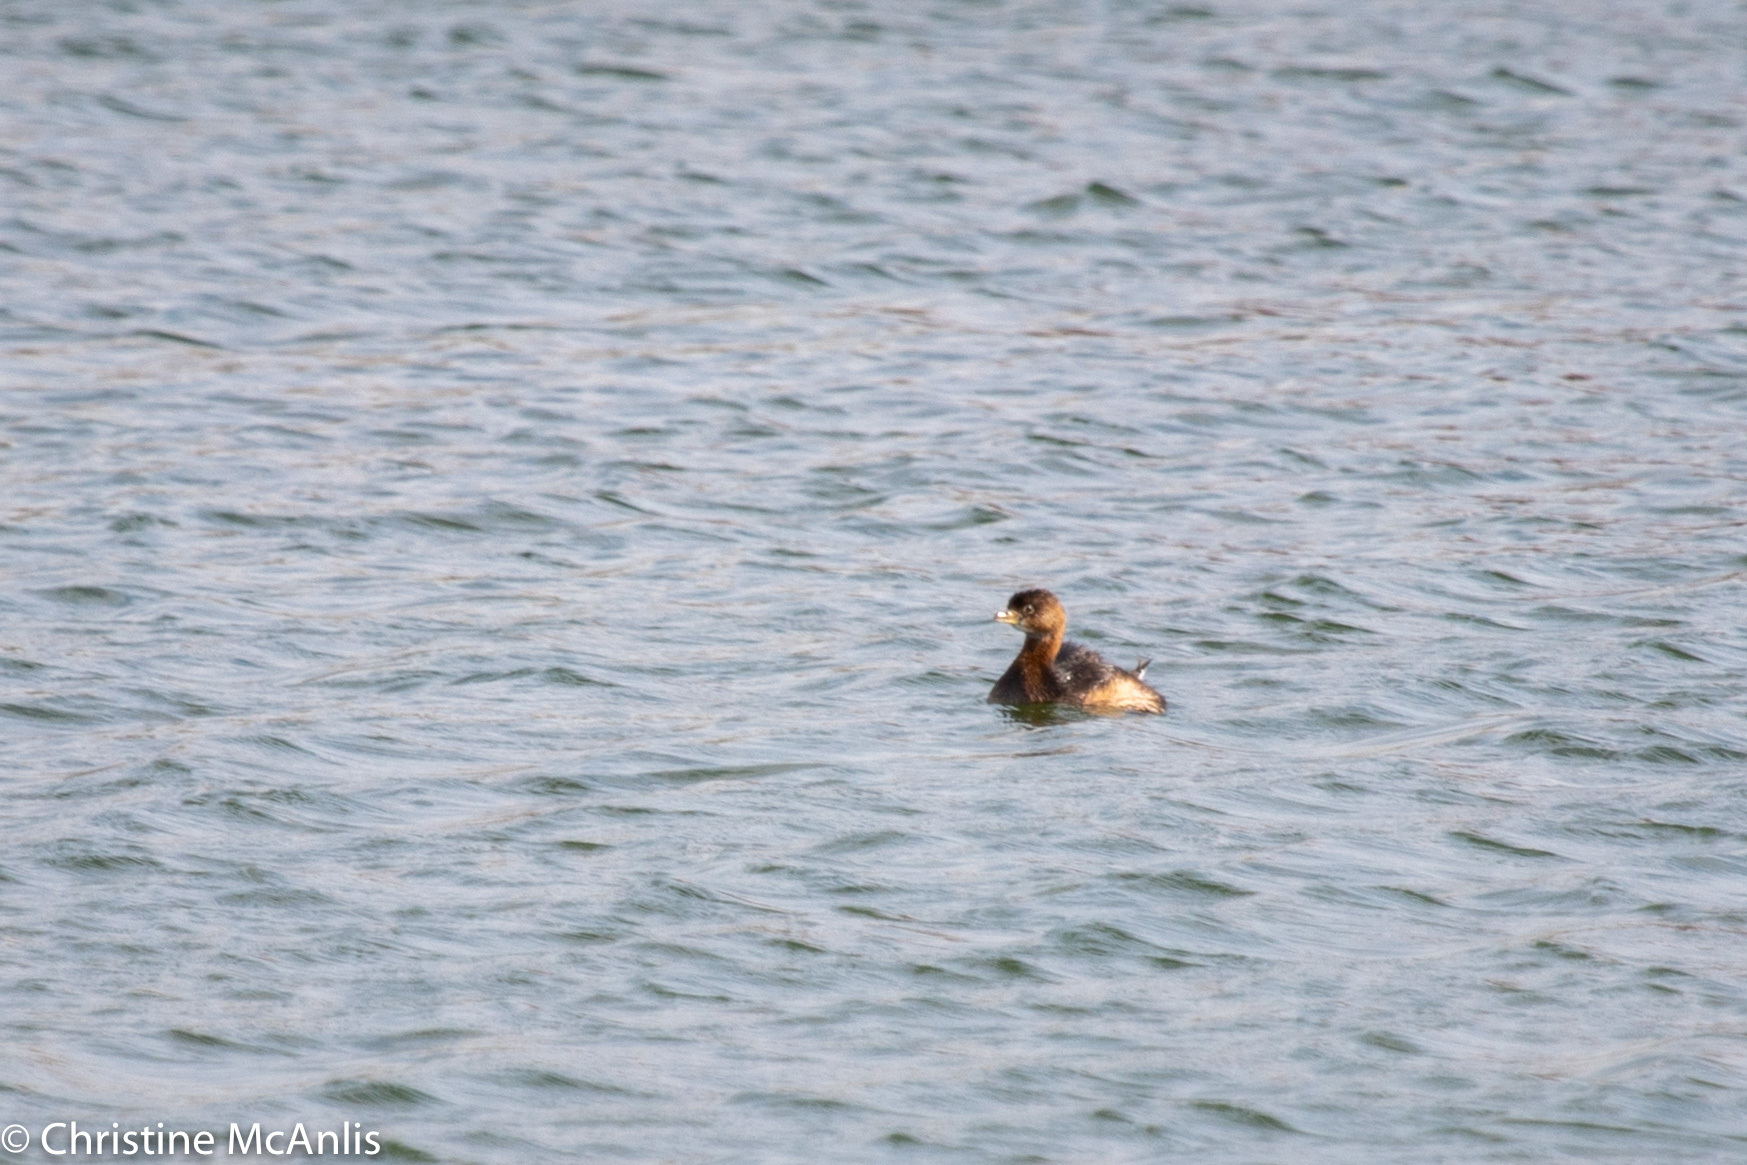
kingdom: Animalia
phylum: Chordata
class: Aves
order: Podicipediformes
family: Podicipedidae
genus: Podilymbus
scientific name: Podilymbus podiceps
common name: Pied-billed grebe
